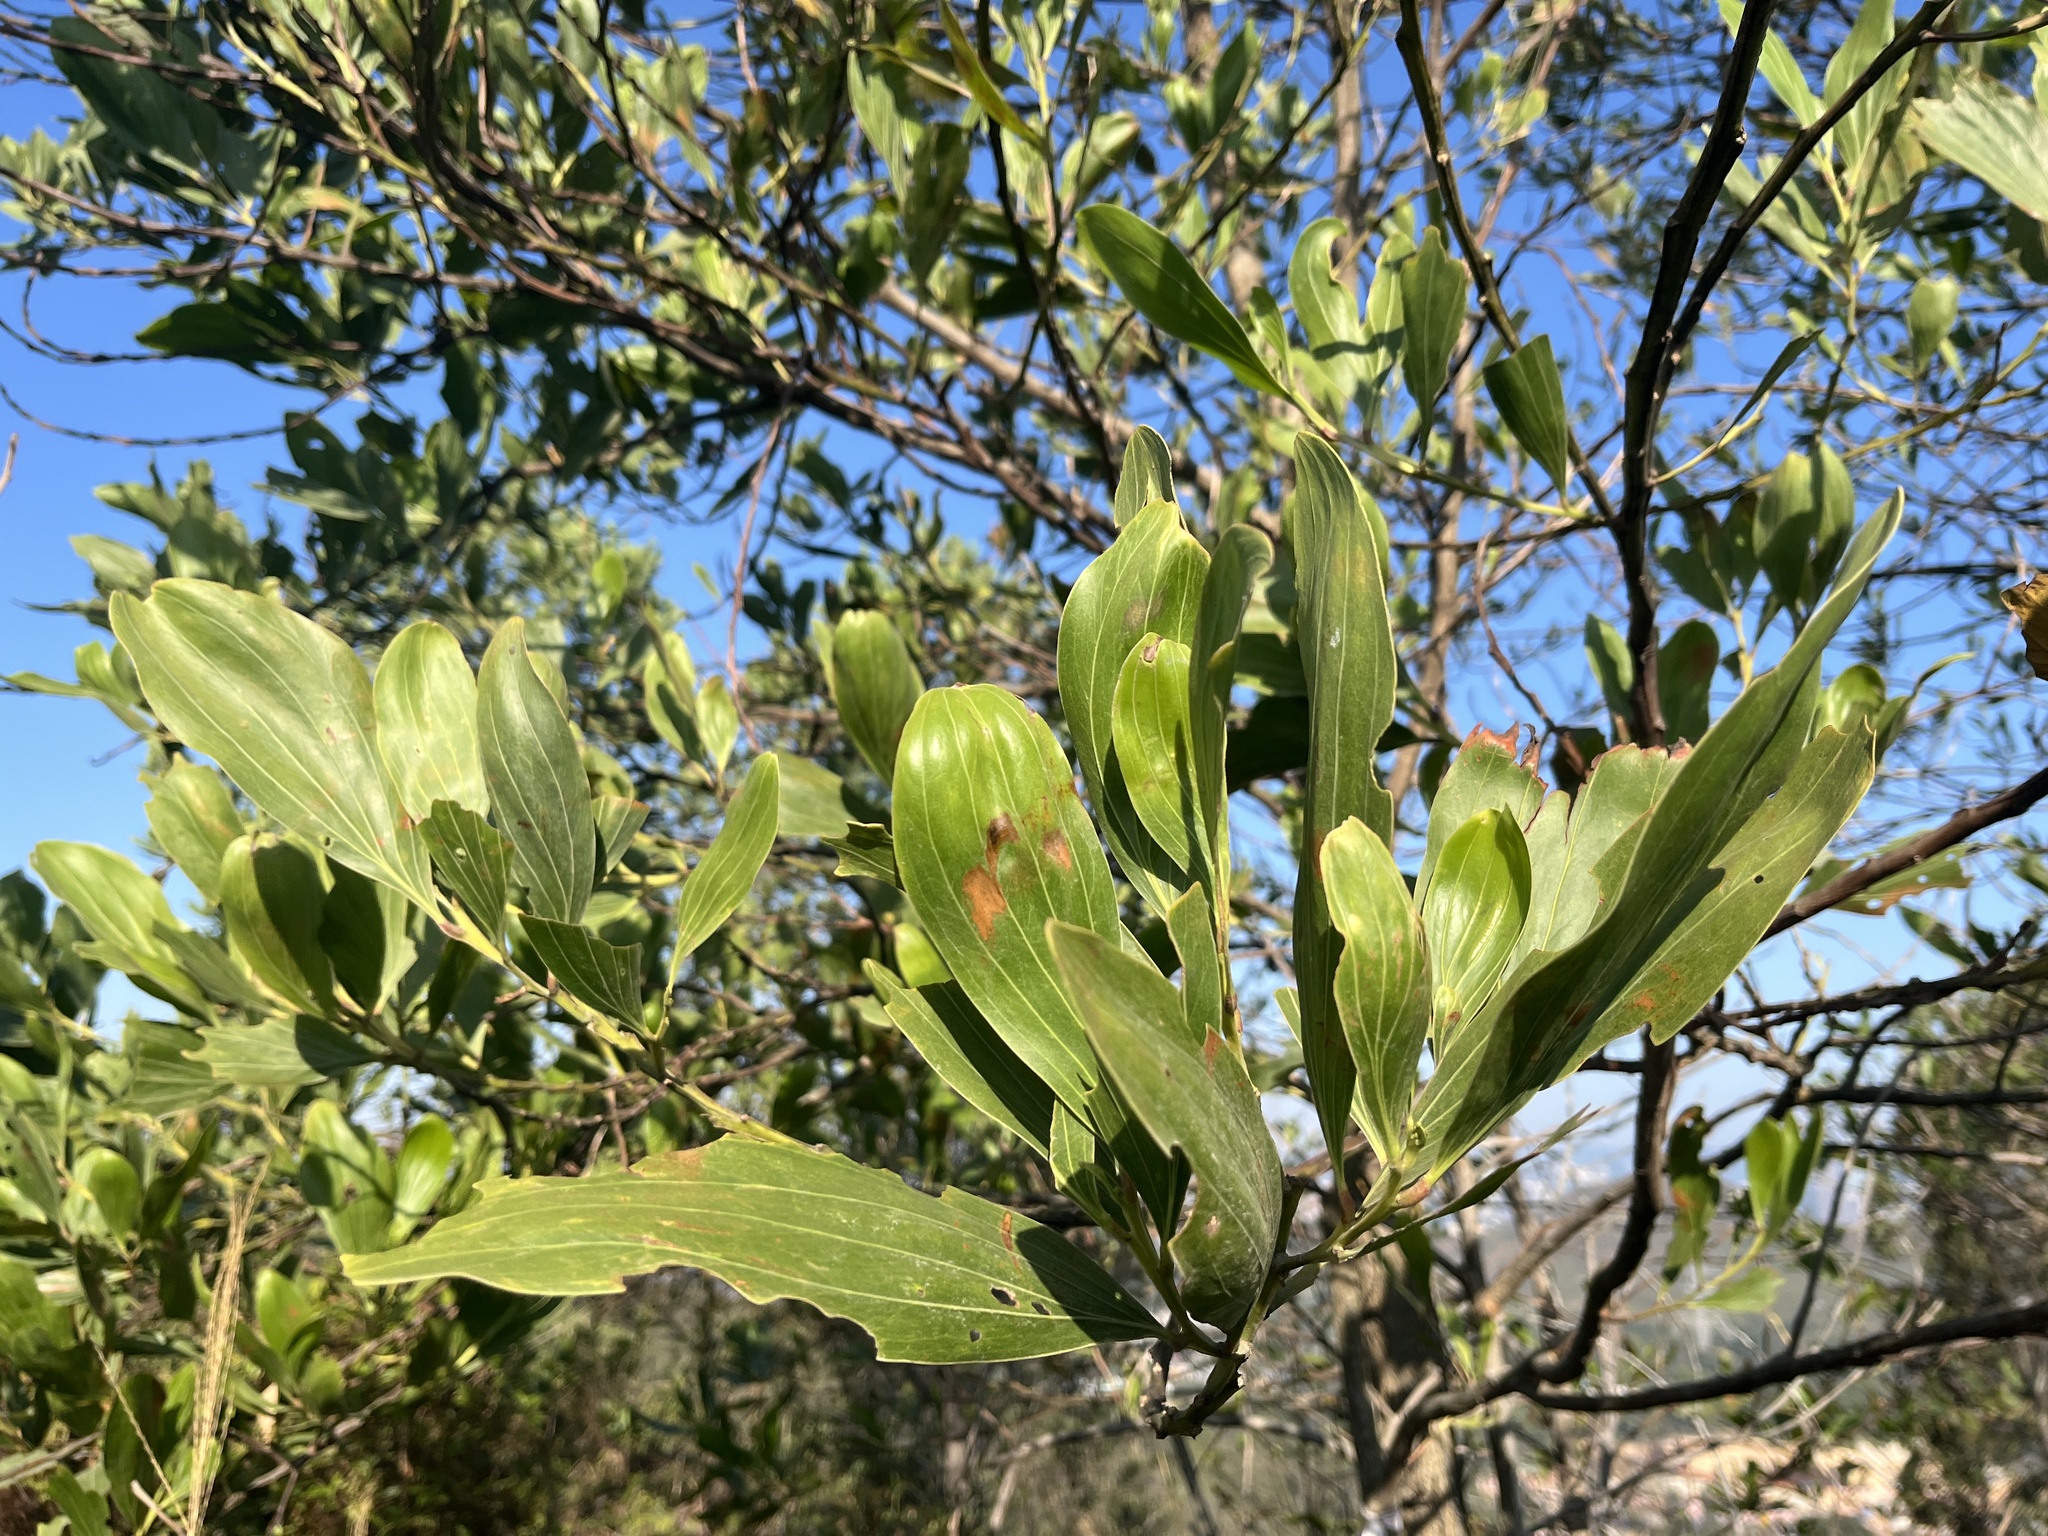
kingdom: Plantae
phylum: Tracheophyta
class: Magnoliopsida
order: Fabales
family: Fabaceae
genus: Acacia
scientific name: Acacia mangium
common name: Black wattle
